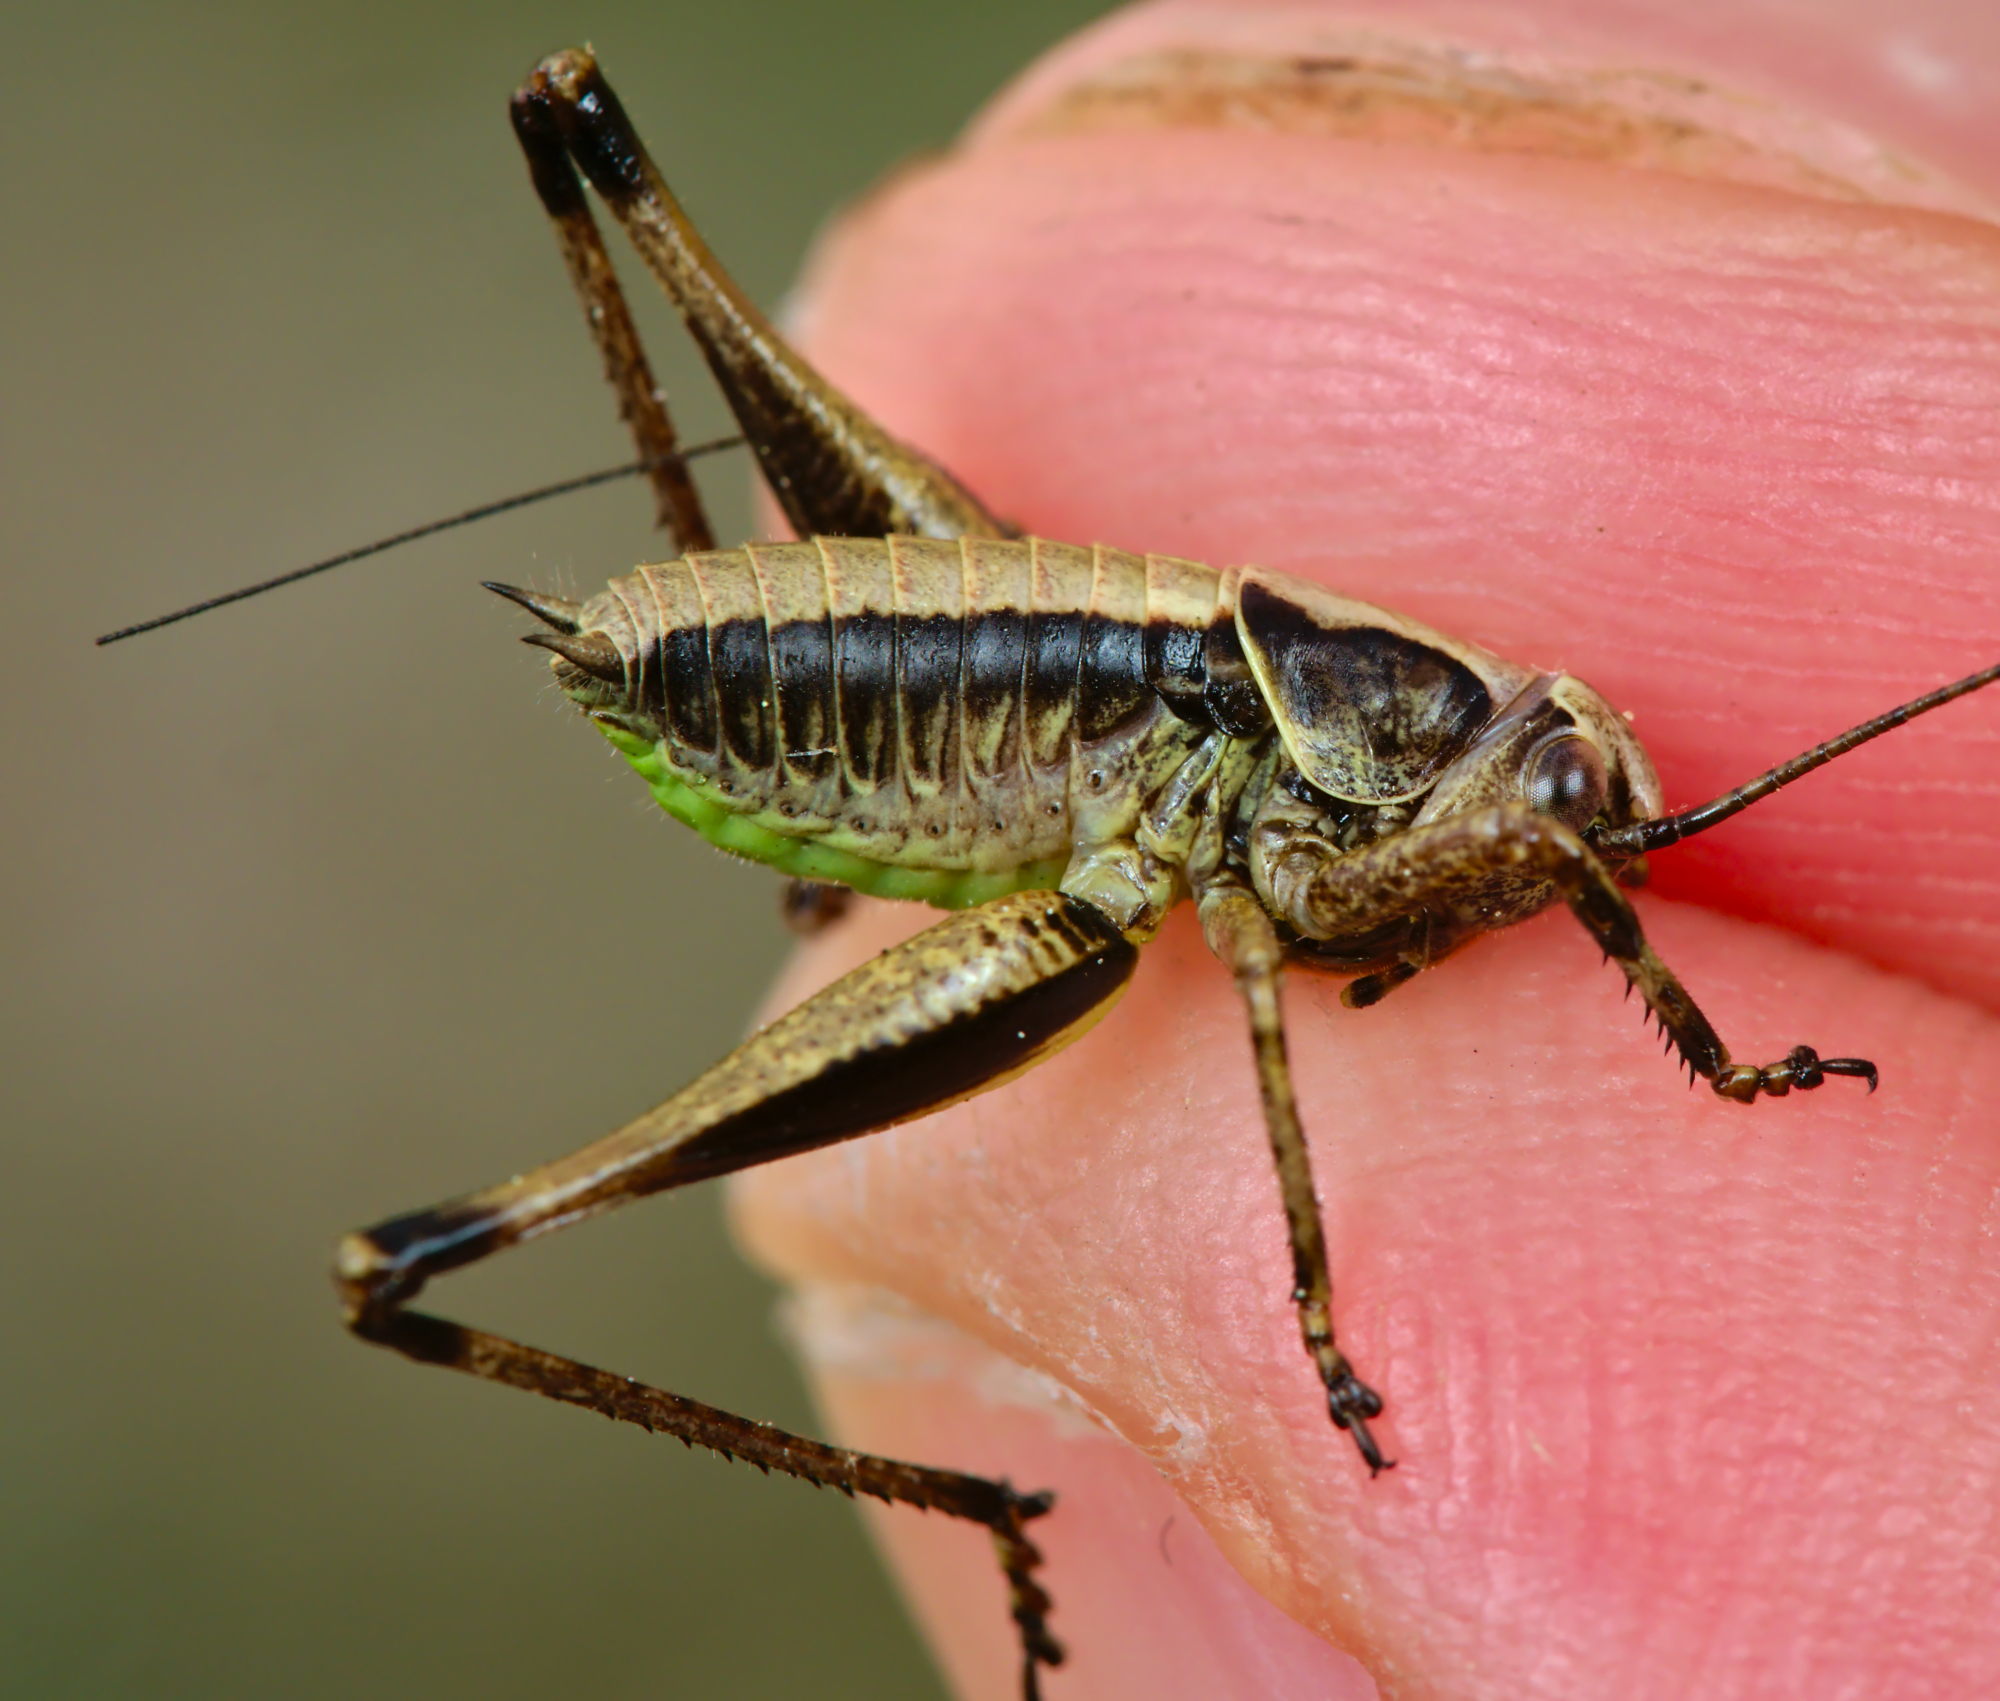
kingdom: Animalia
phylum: Arthropoda
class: Insecta
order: Orthoptera
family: Tettigoniidae
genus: Pholidoptera
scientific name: Pholidoptera griseoaptera
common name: Dark bush-cricket
